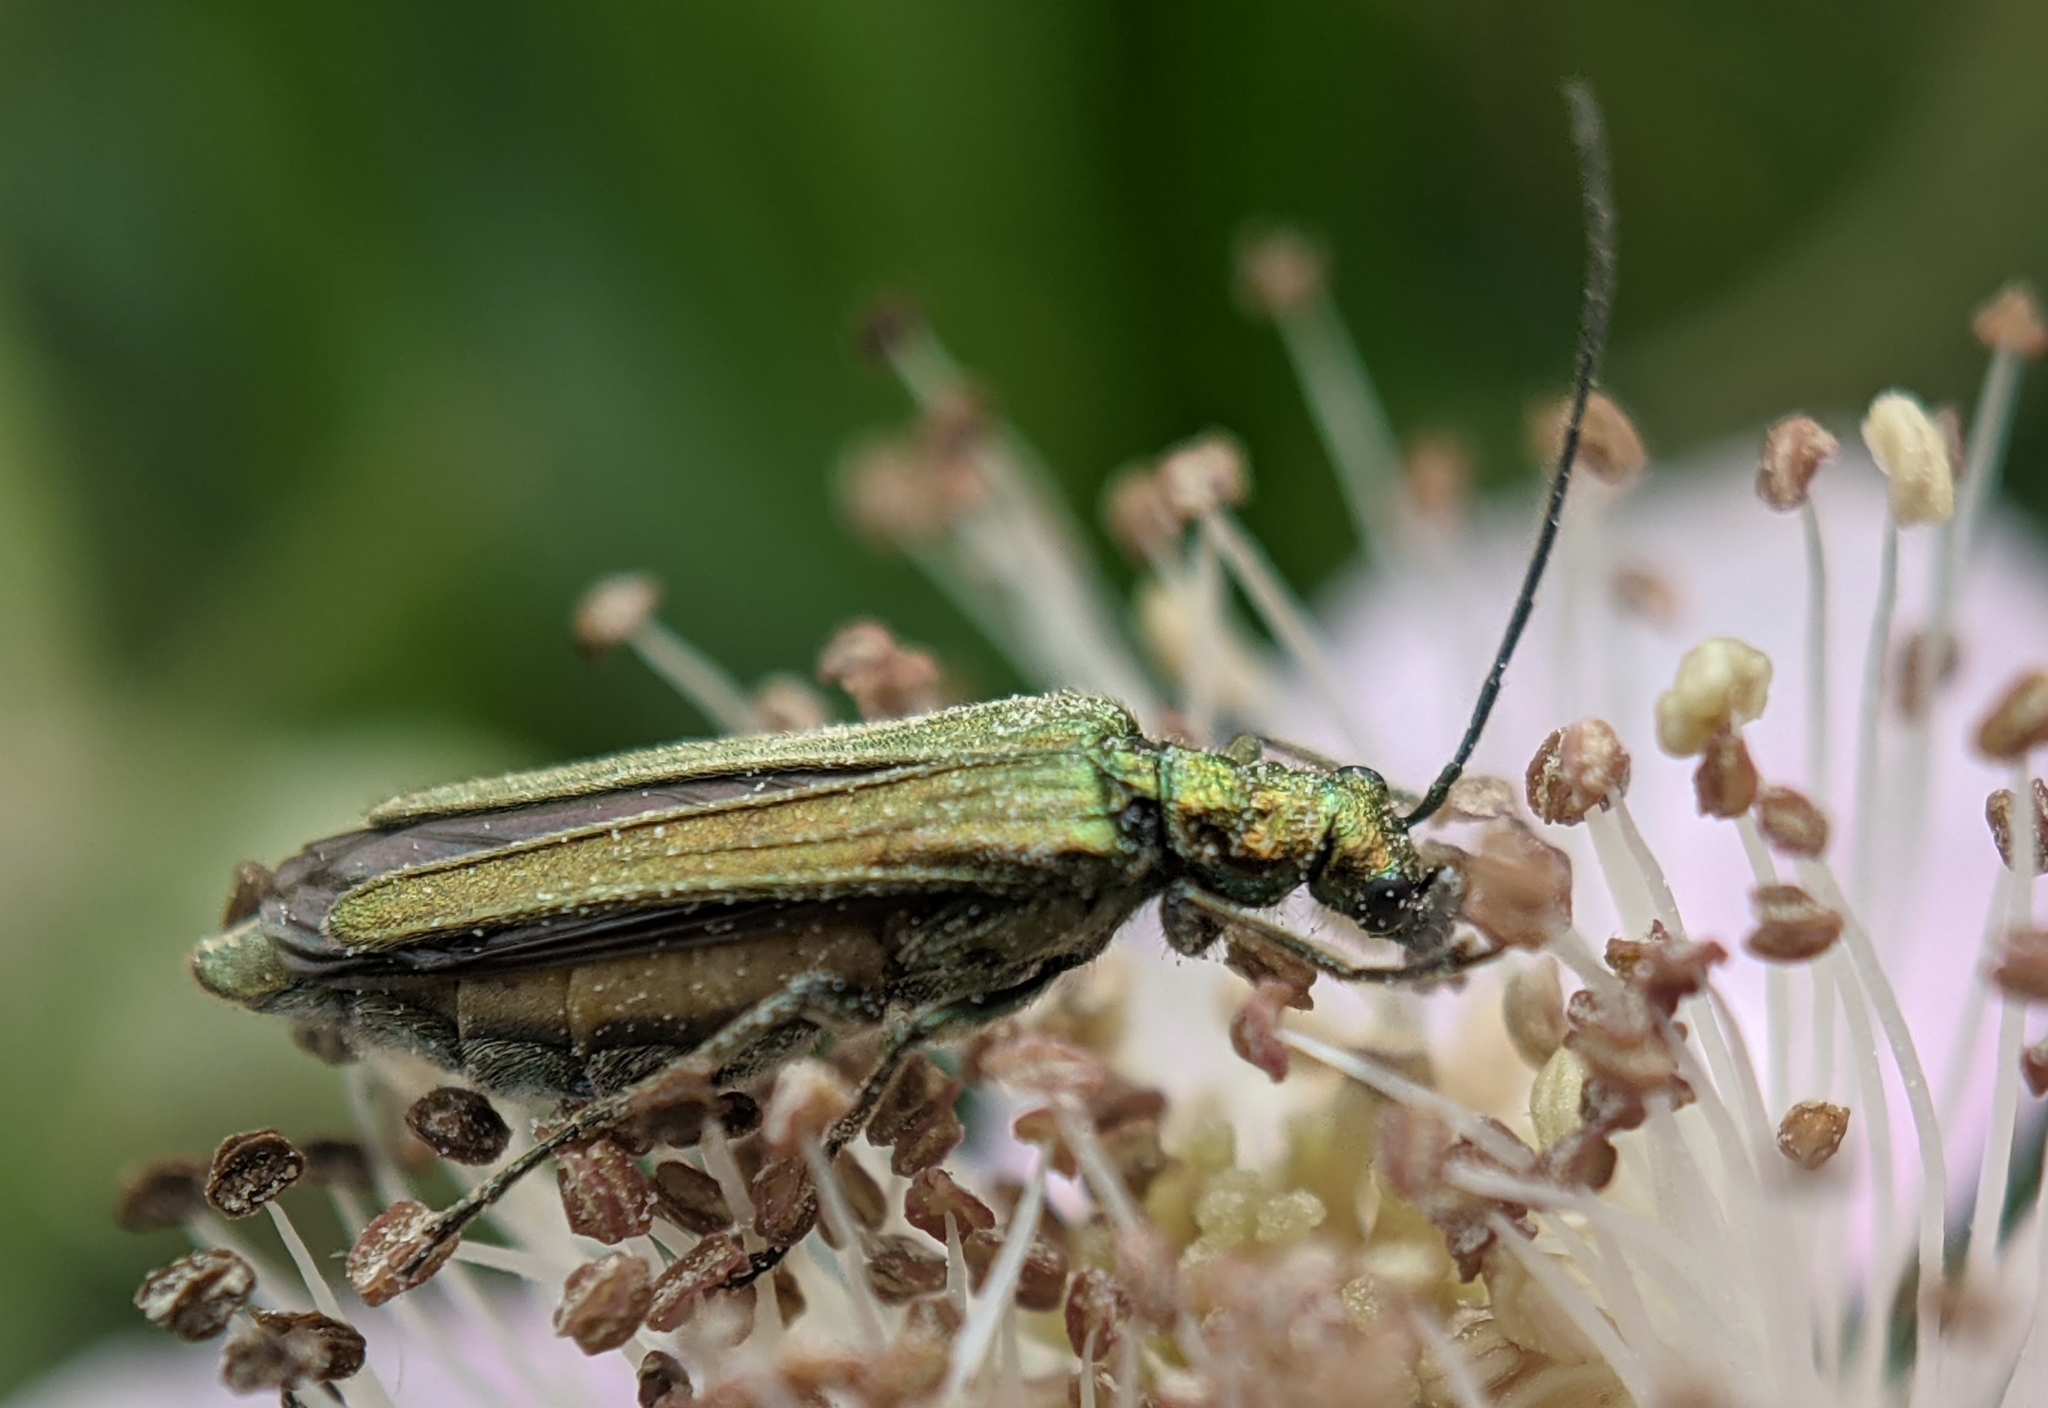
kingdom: Animalia
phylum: Arthropoda
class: Insecta
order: Coleoptera
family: Oedemeridae
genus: Oedemera
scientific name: Oedemera nobilis
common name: Swollen-thighed beetle
